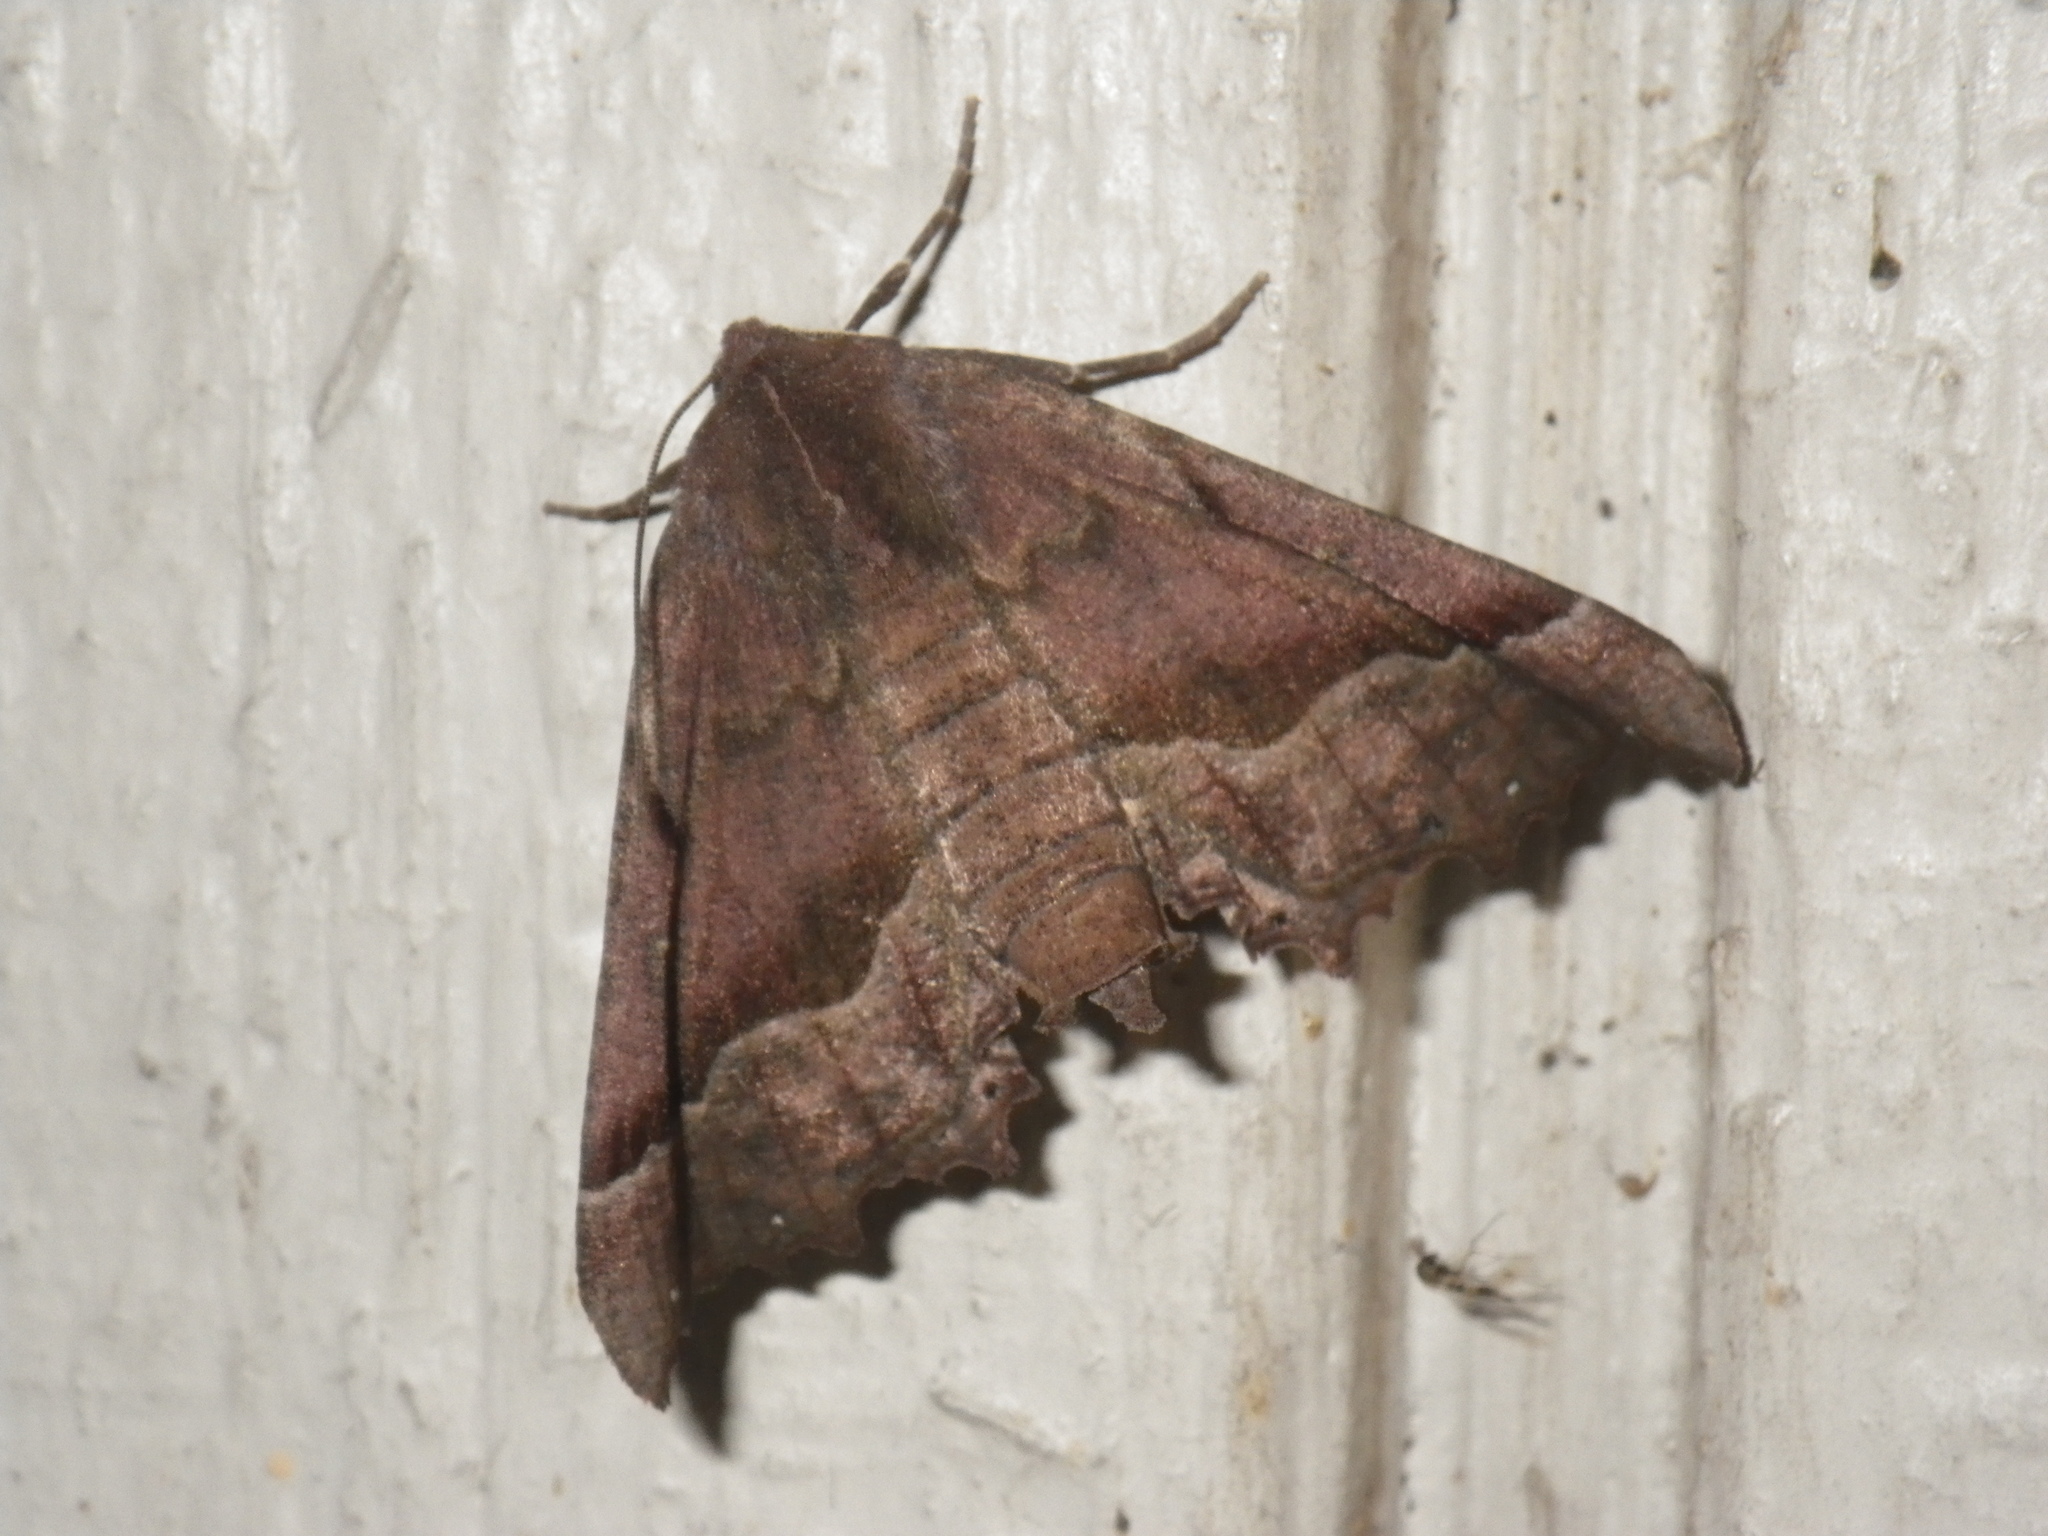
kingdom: Animalia
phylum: Arthropoda
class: Insecta
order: Lepidoptera
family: Geometridae
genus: Pero
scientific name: Pero occidentalis
